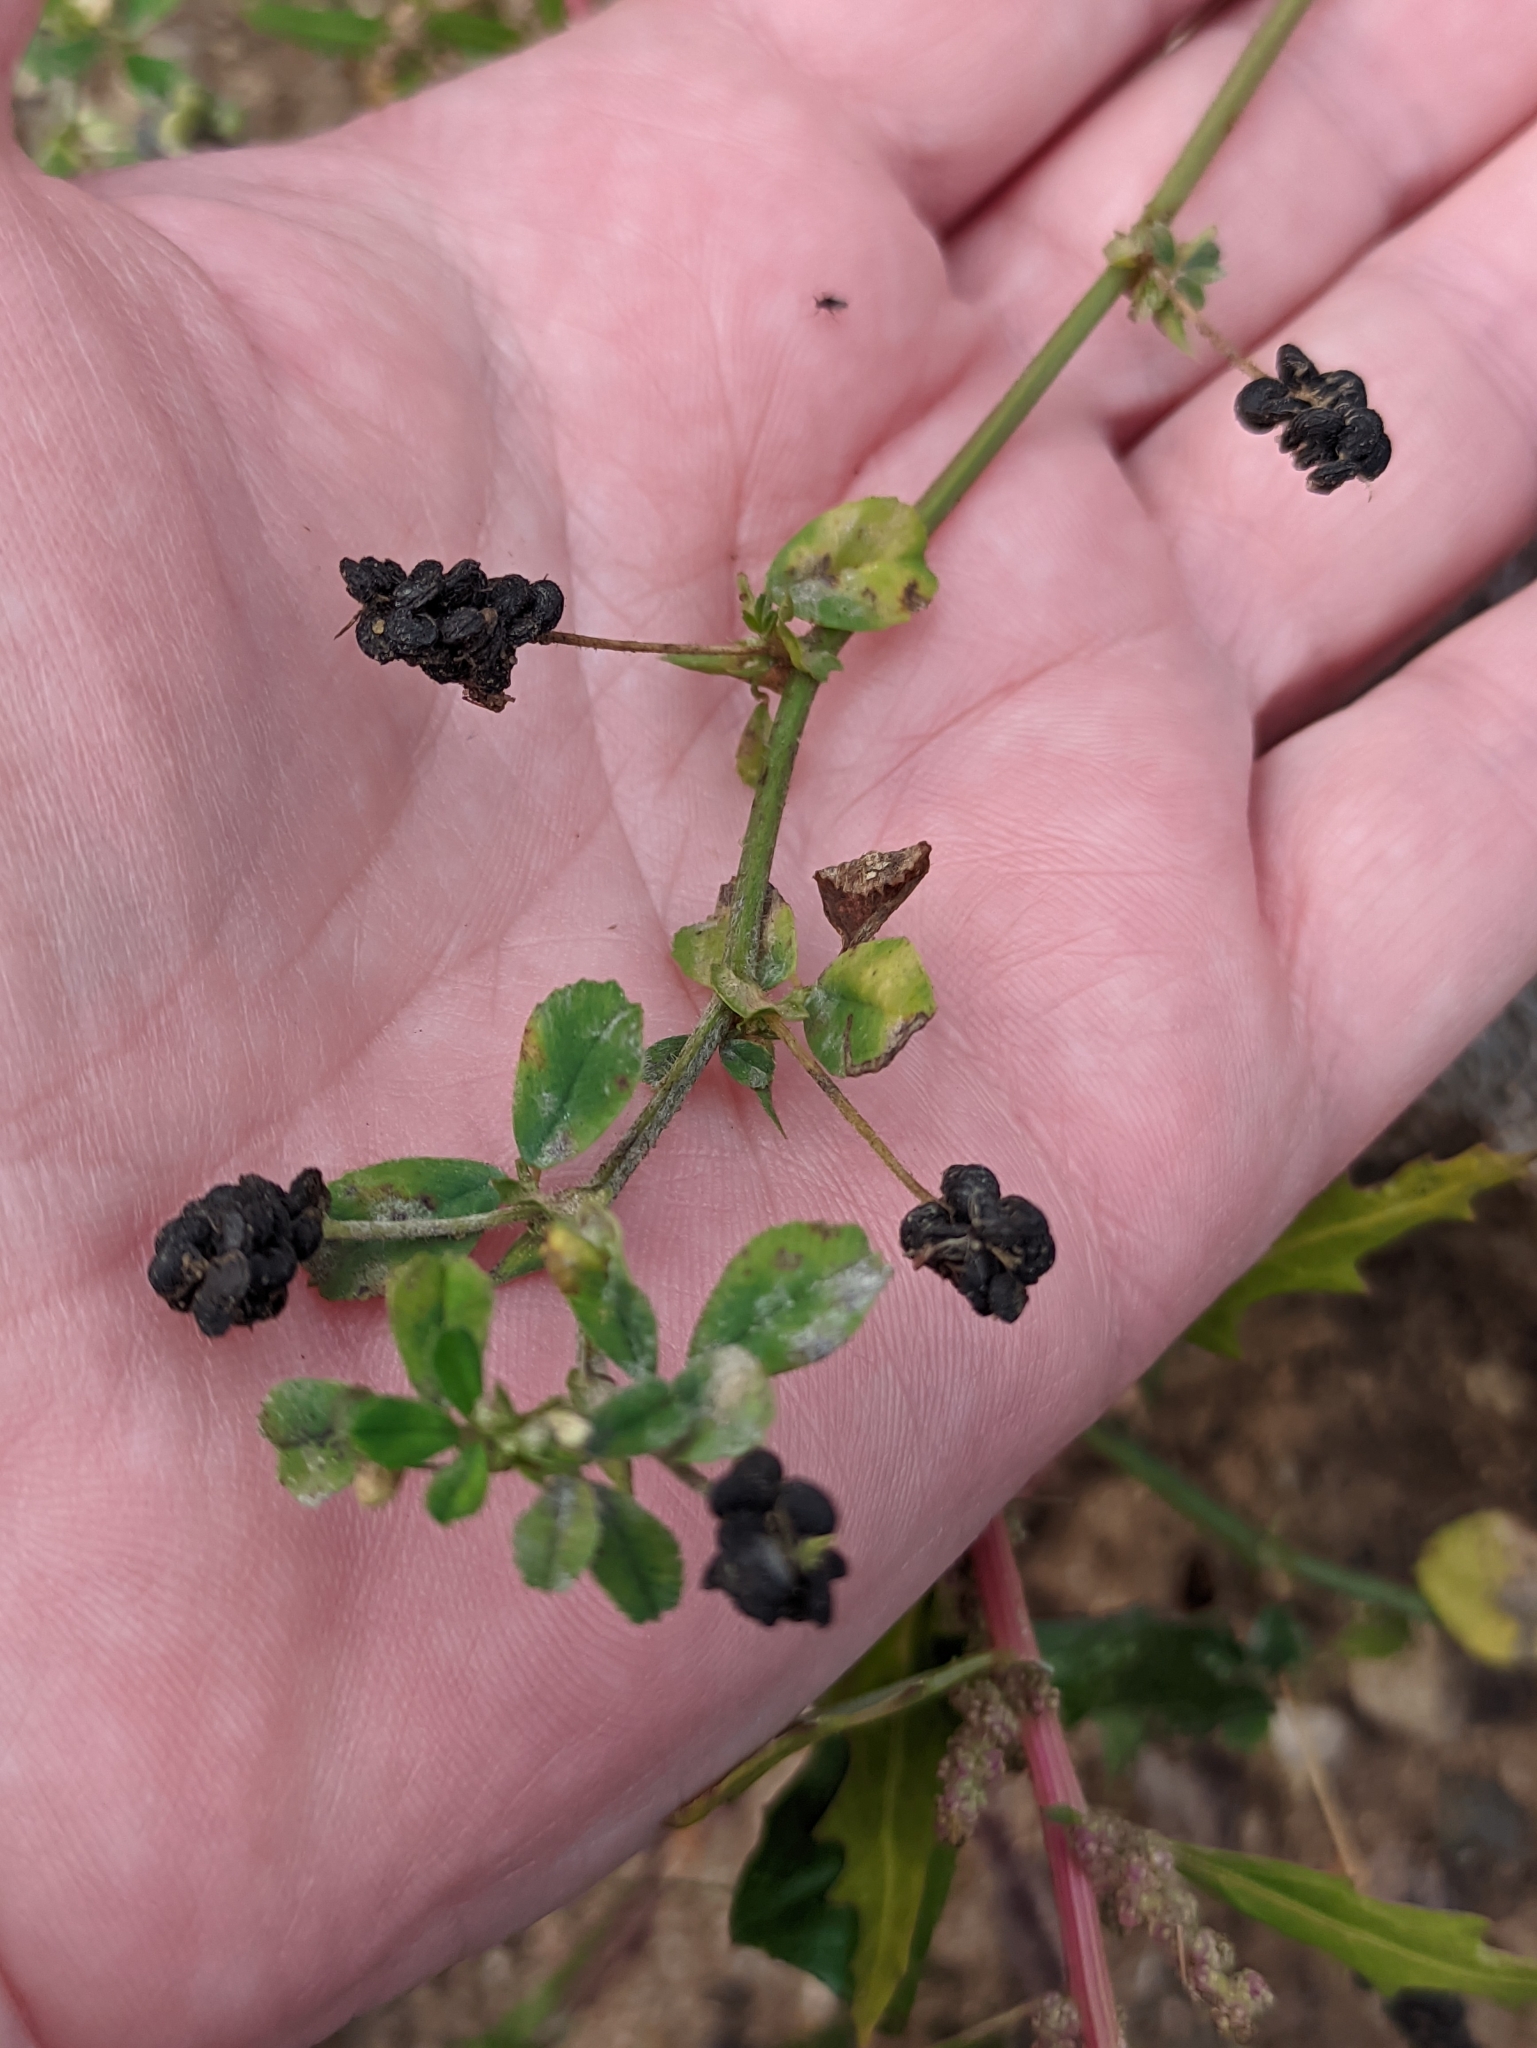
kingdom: Plantae
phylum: Tracheophyta
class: Magnoliopsida
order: Fabales
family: Fabaceae
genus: Medicago
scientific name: Medicago lupulina
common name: Black medick
